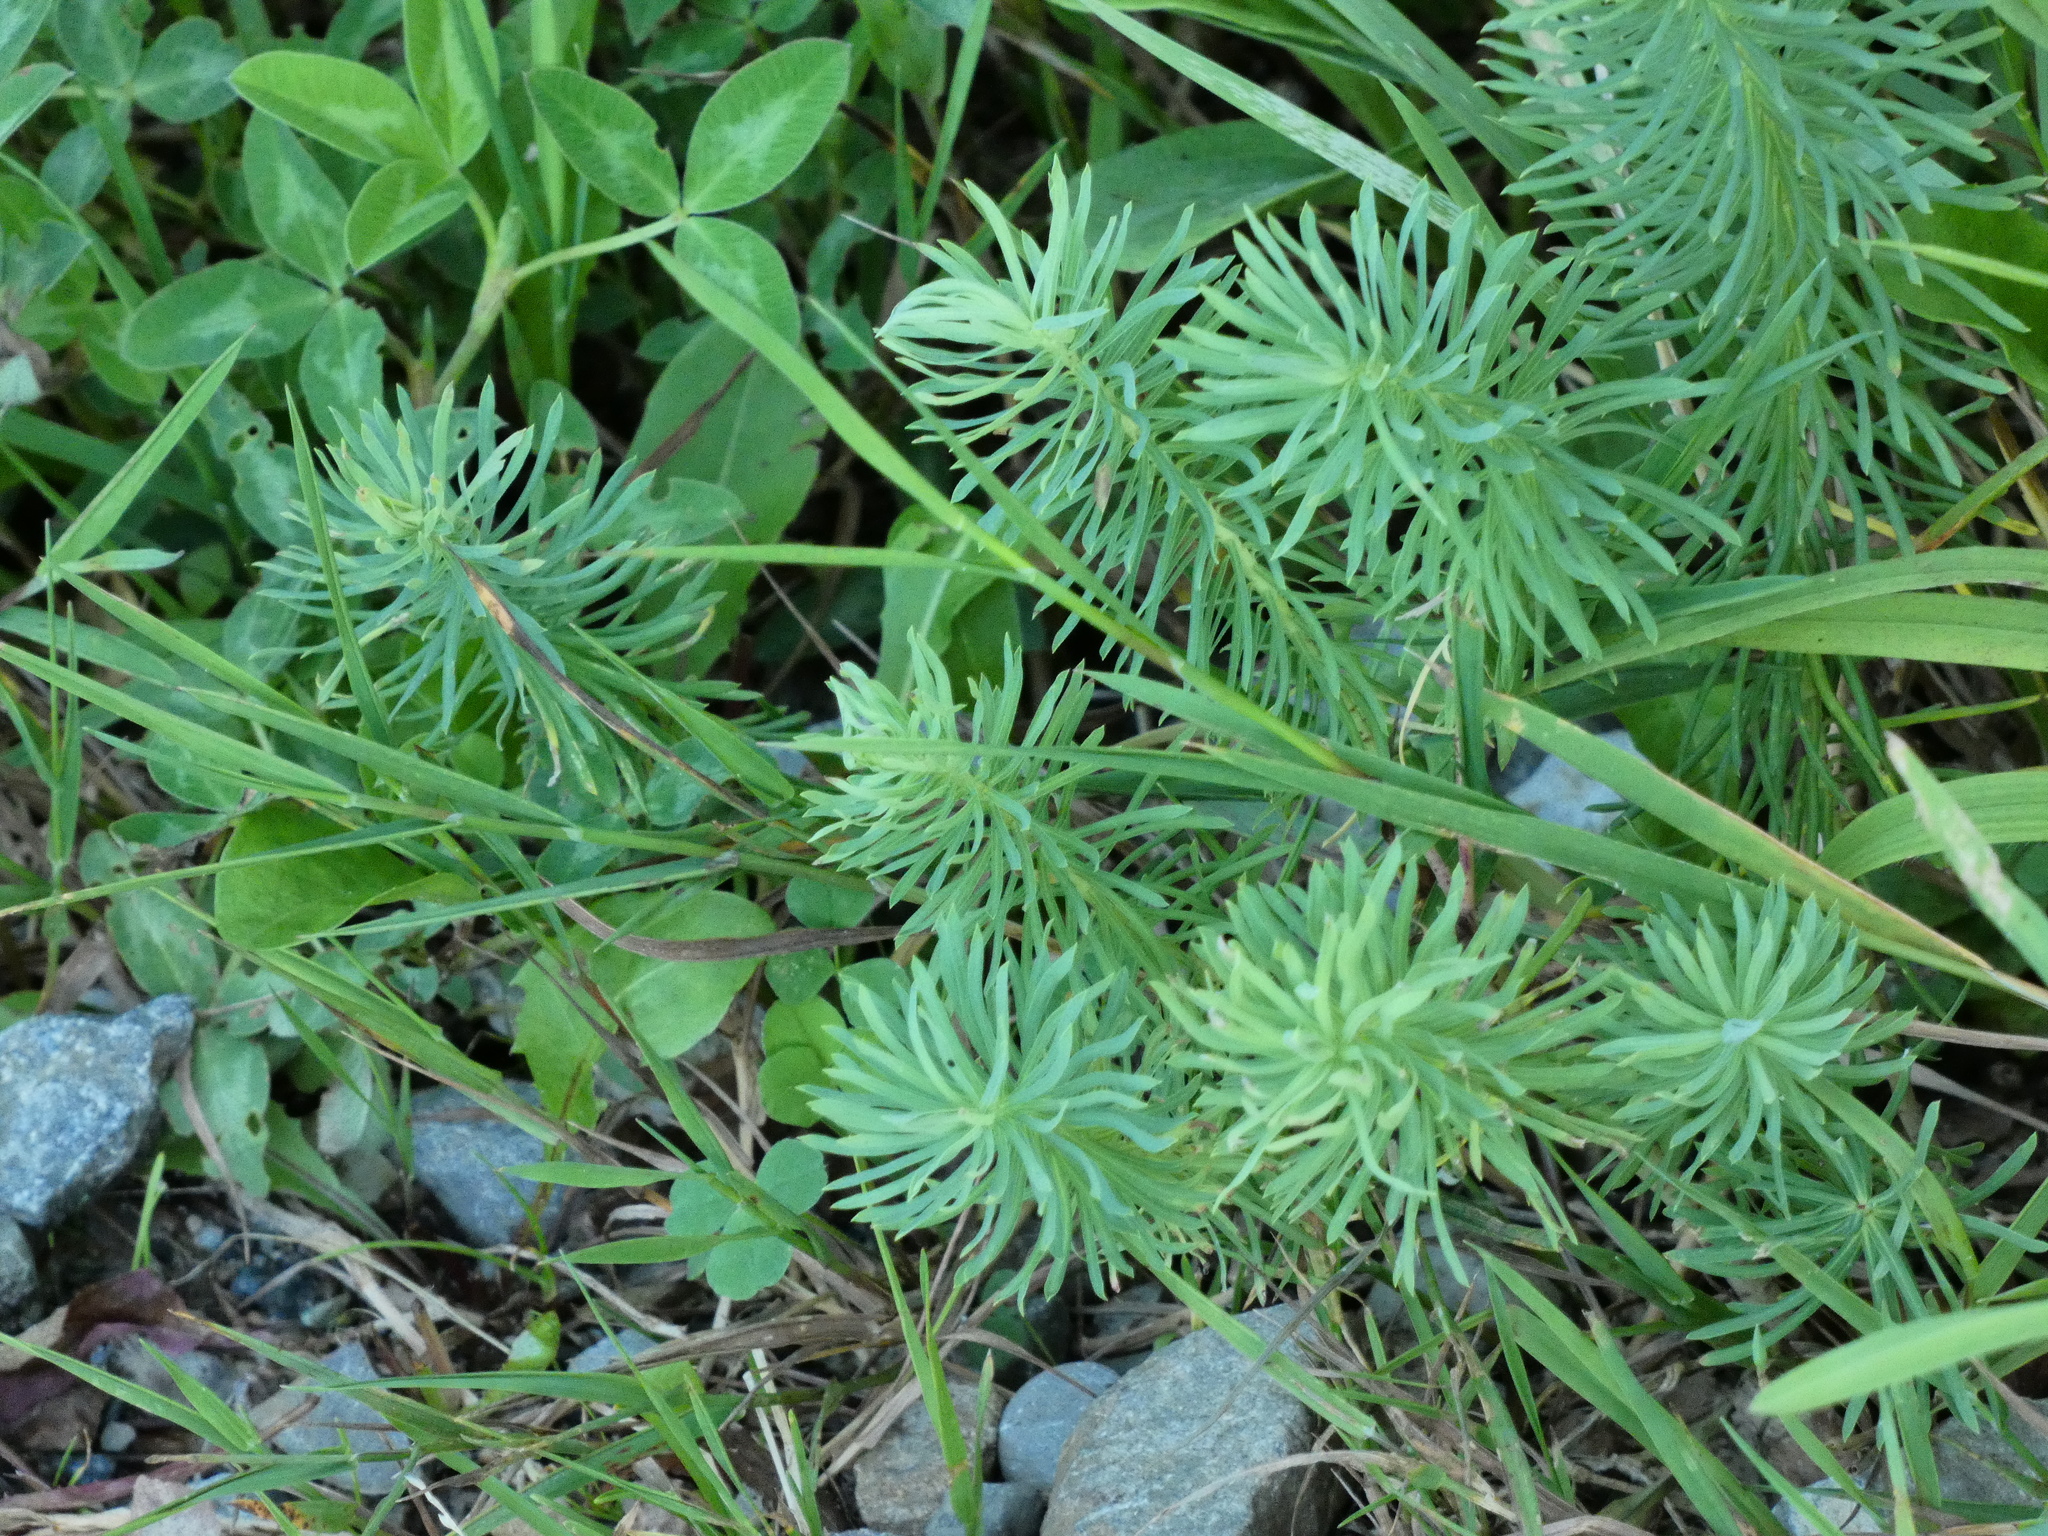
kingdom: Plantae
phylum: Tracheophyta
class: Magnoliopsida
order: Malpighiales
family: Euphorbiaceae
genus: Euphorbia
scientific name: Euphorbia cyparissias
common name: Cypress spurge
